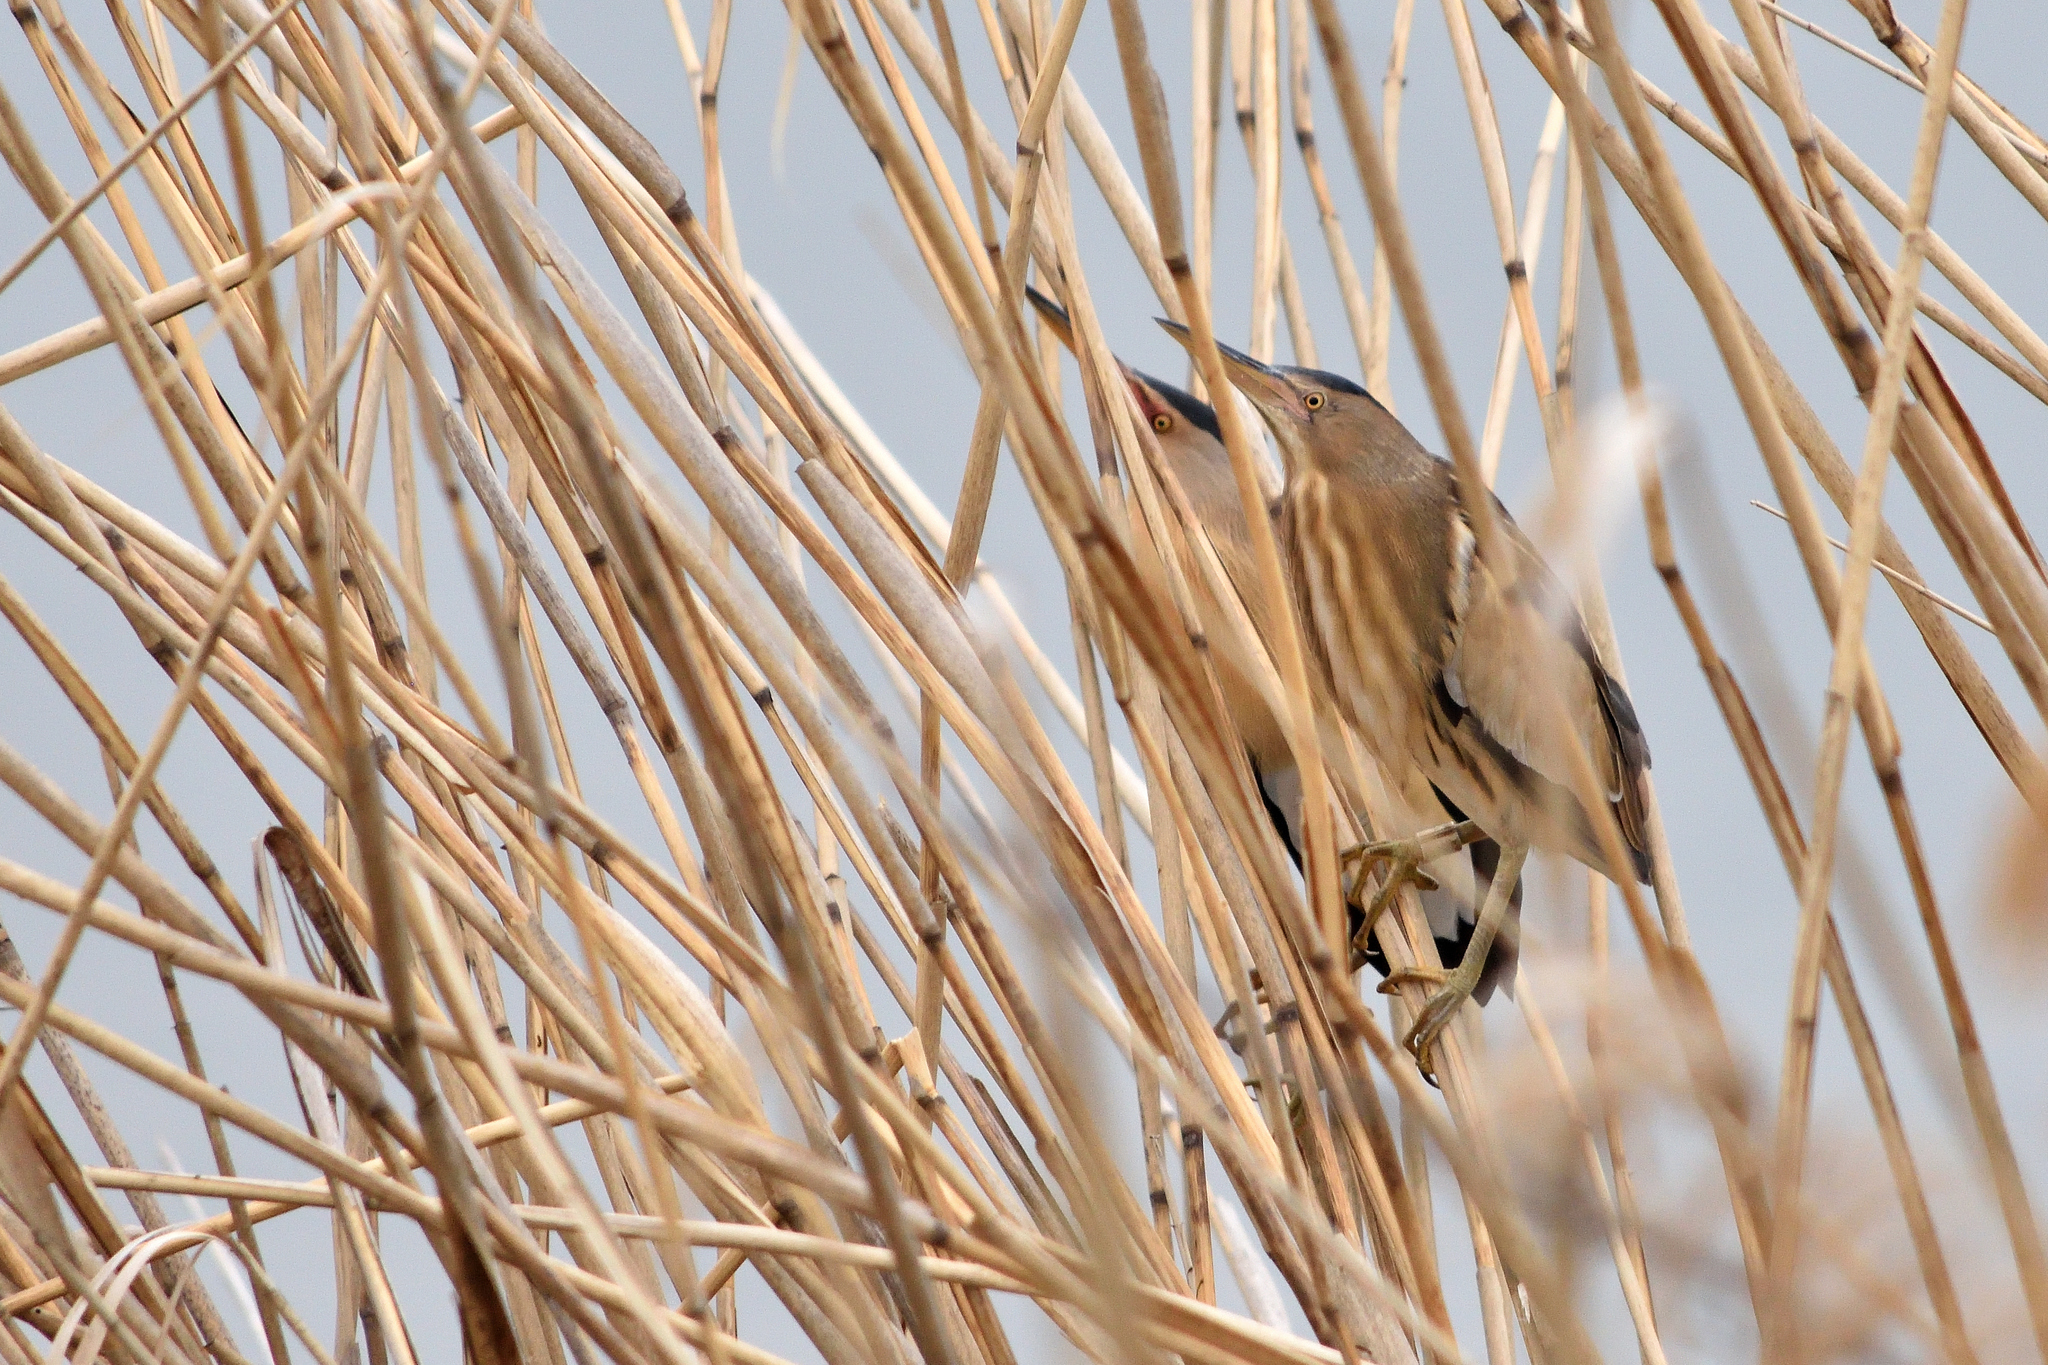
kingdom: Animalia
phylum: Chordata
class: Aves
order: Pelecaniformes
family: Ardeidae
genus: Ixobrychus
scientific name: Ixobrychus minutus
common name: Little bittern
